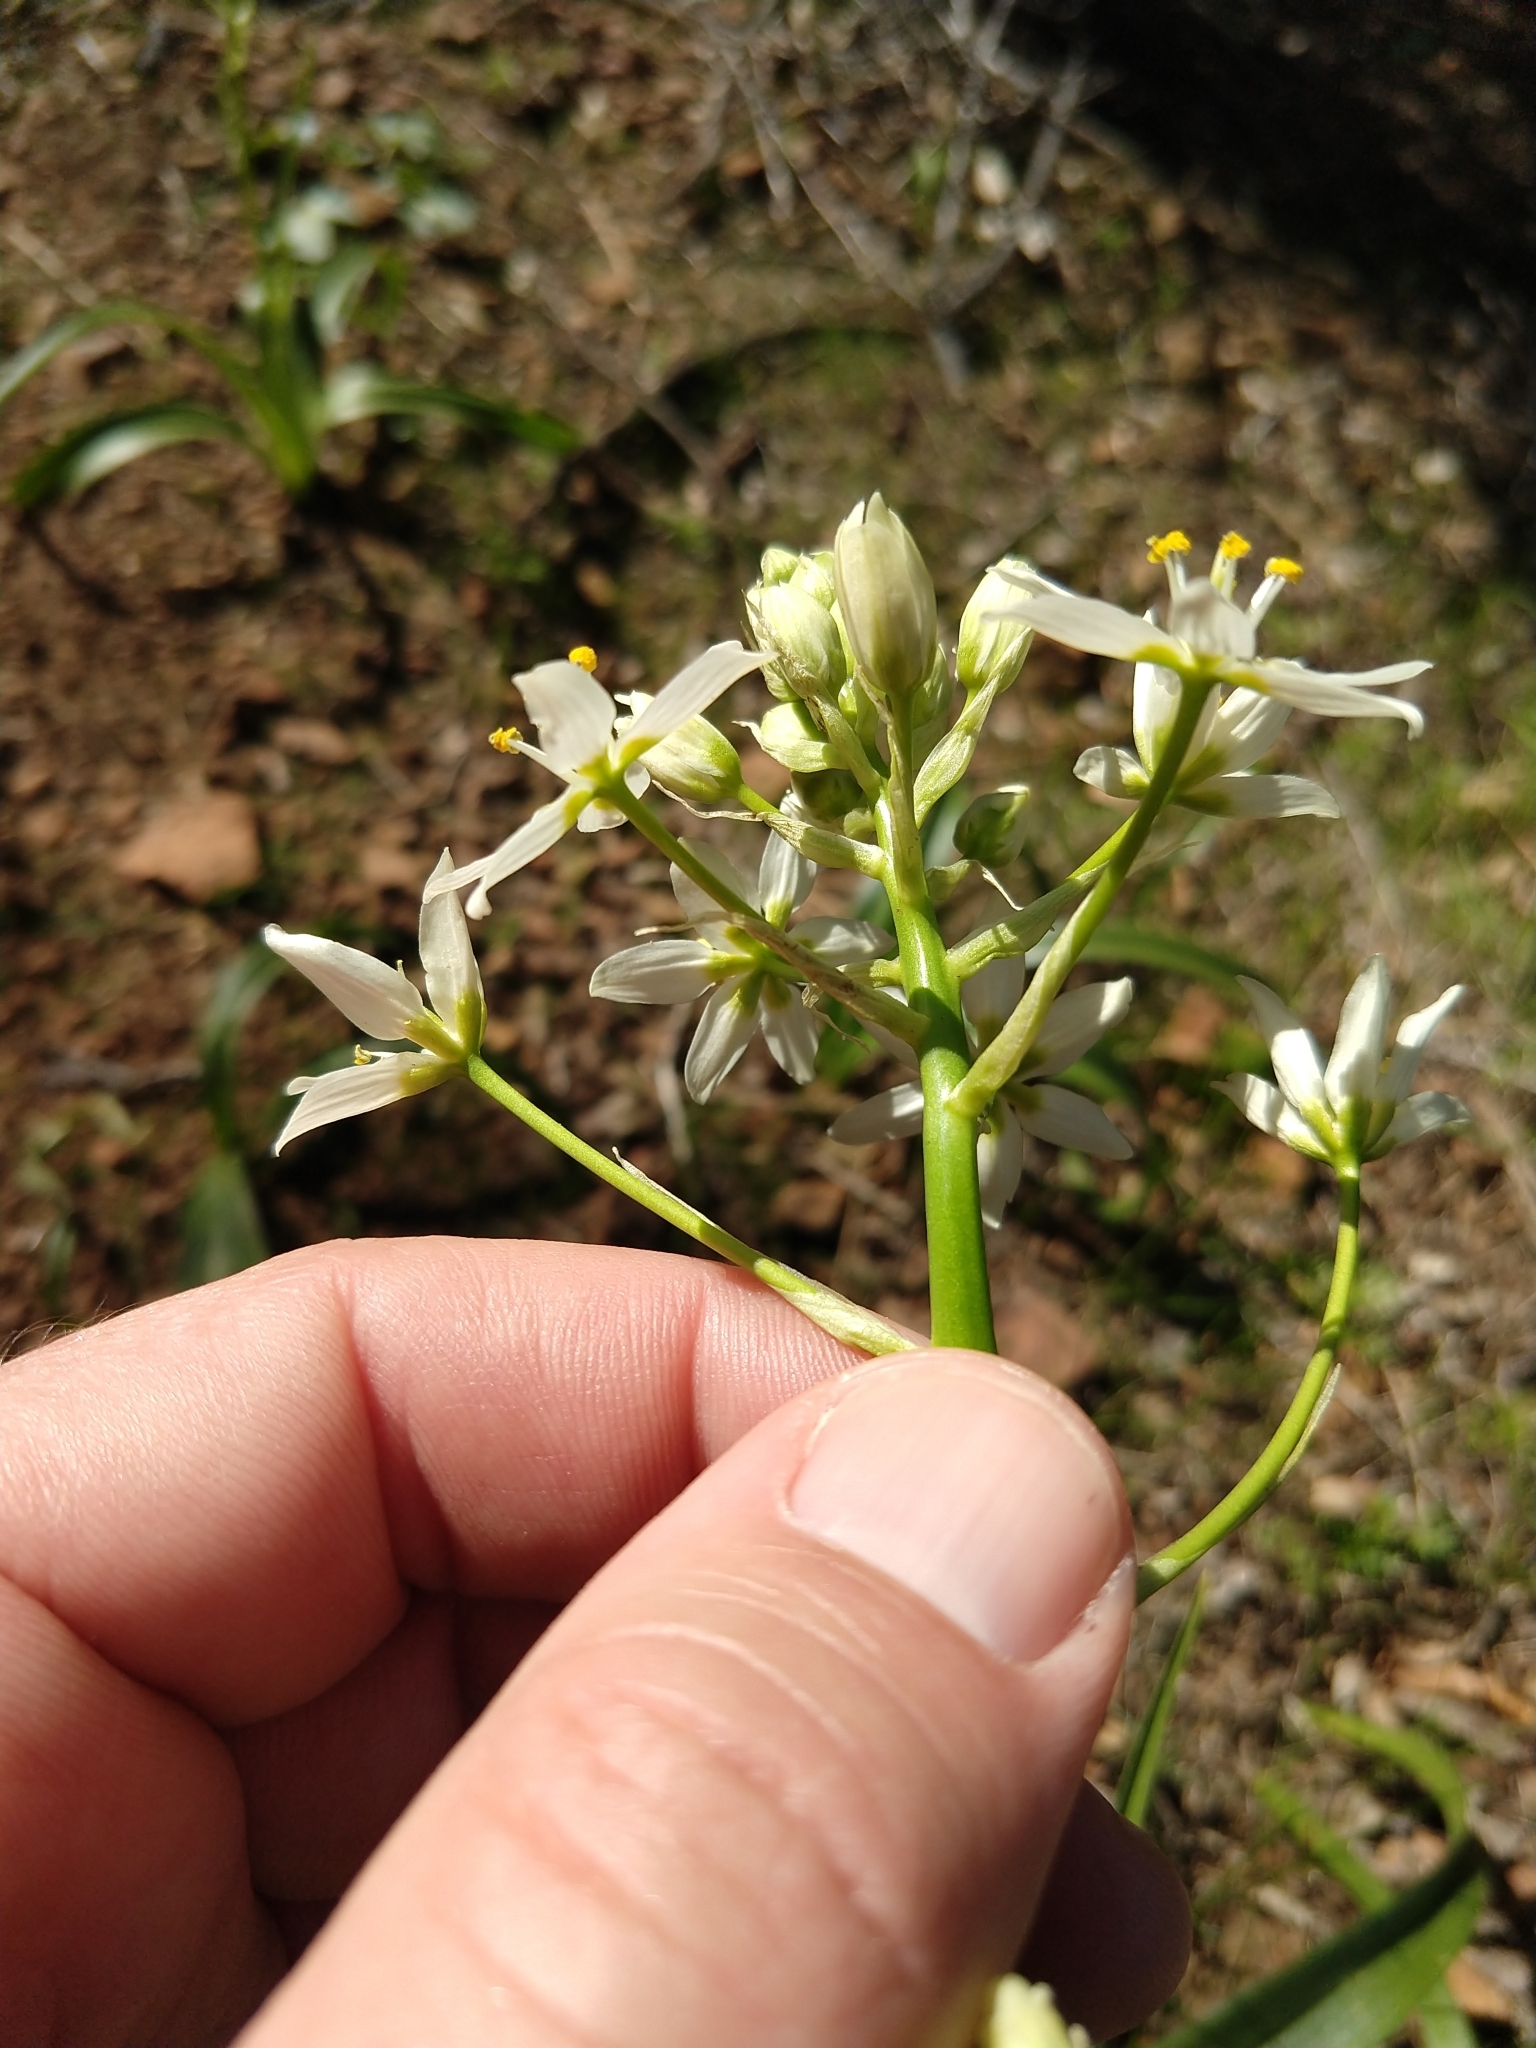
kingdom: Plantae
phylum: Tracheophyta
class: Liliopsida
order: Liliales
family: Melanthiaceae
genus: Toxicoscordion
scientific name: Toxicoscordion fremontii
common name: Fremont's death camas
